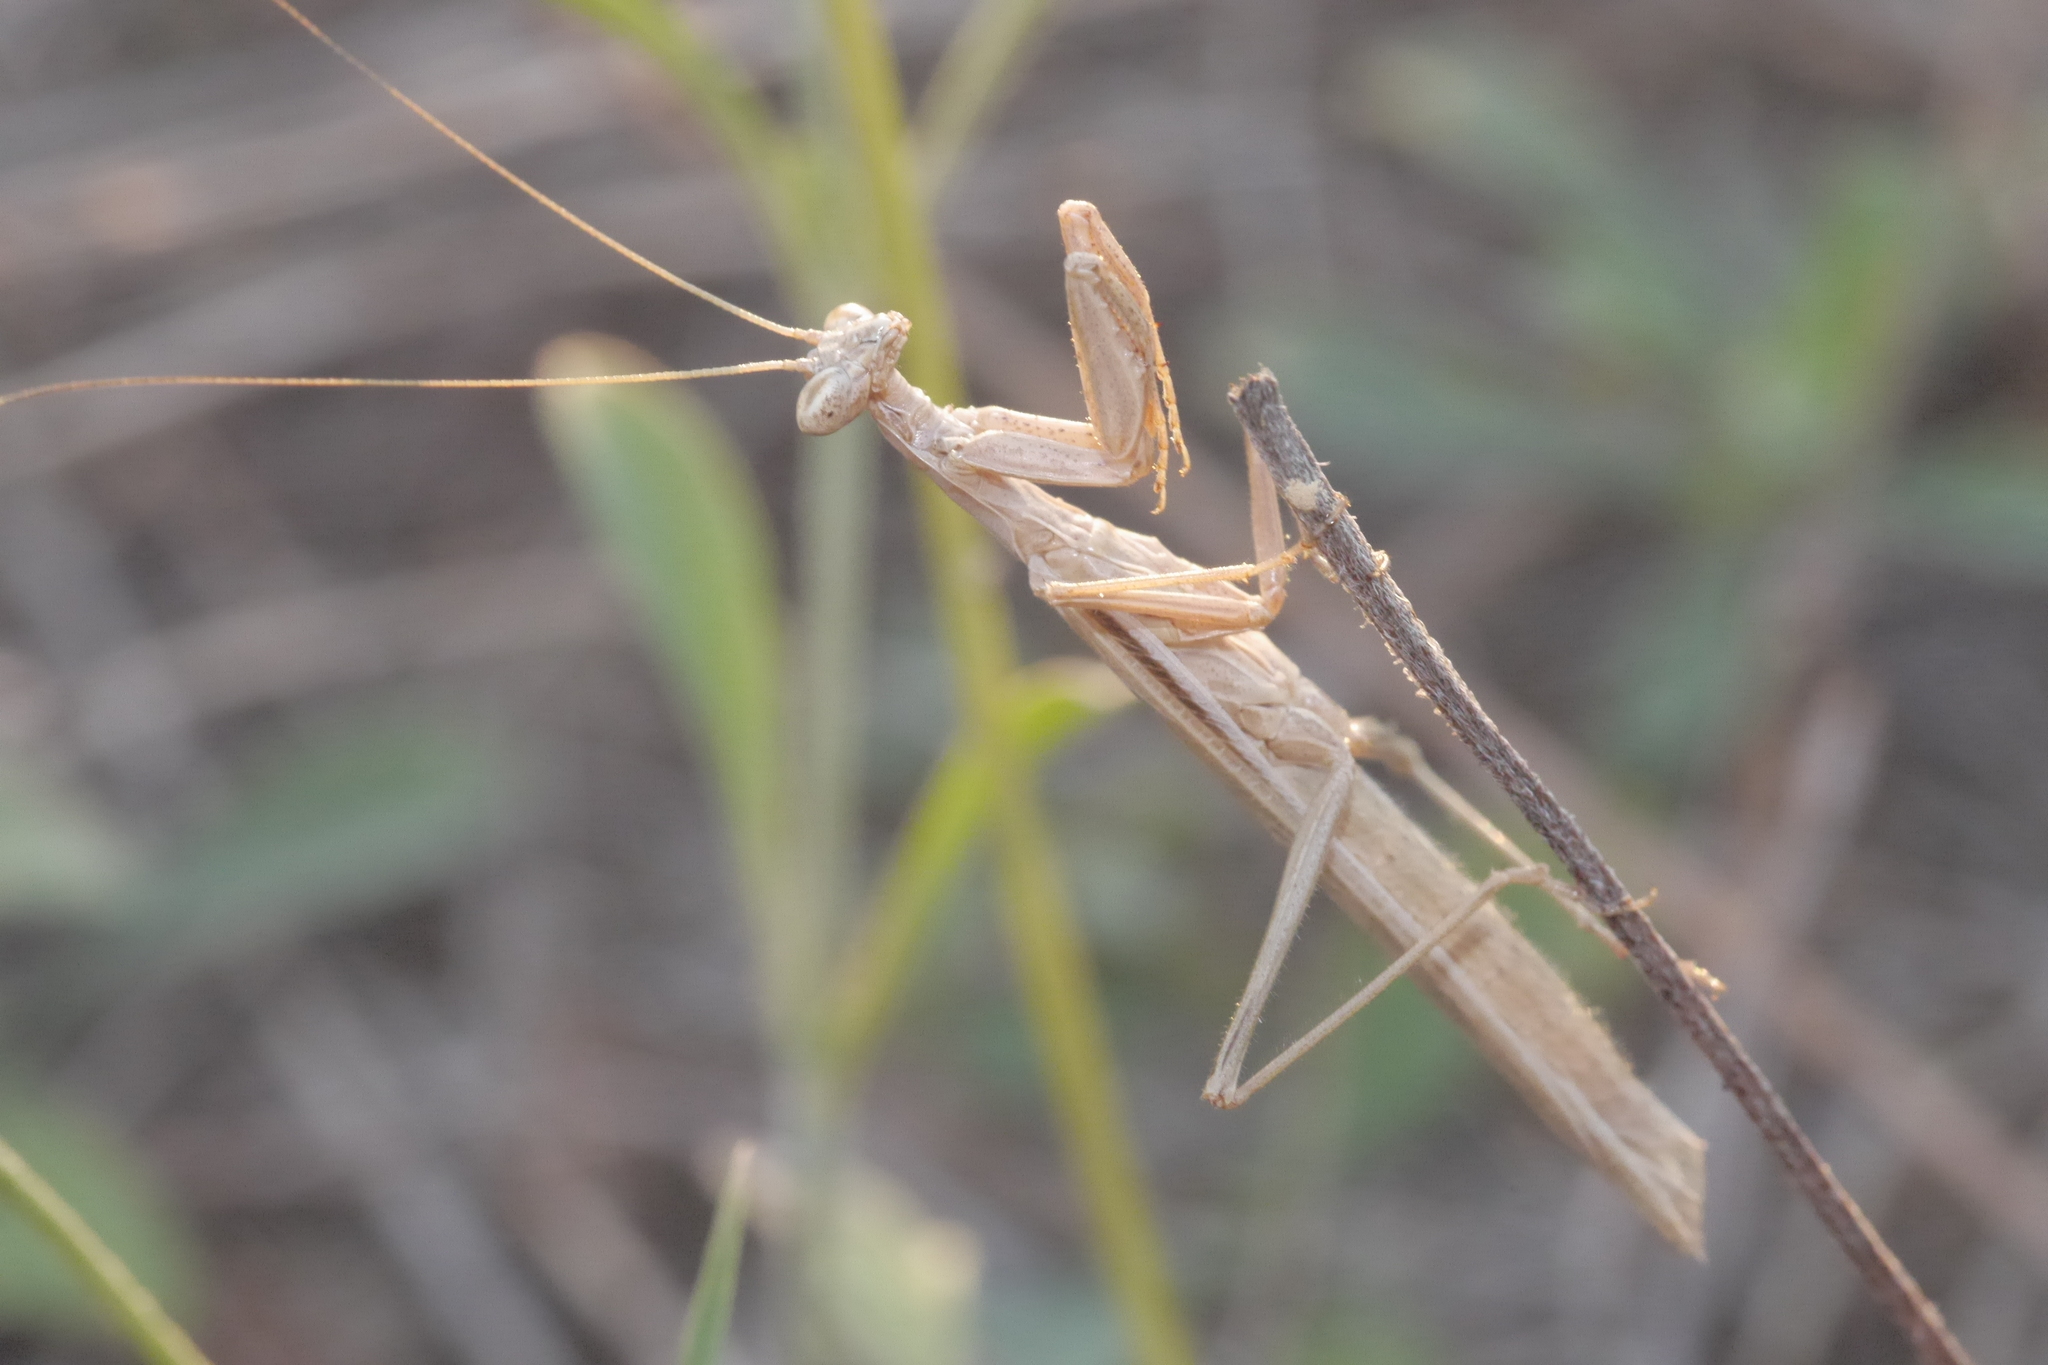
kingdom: Animalia
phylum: Arthropoda
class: Insecta
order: Mantodea
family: Amelidae
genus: Ameles
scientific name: Ameles decolor
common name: Dwarf mantis
